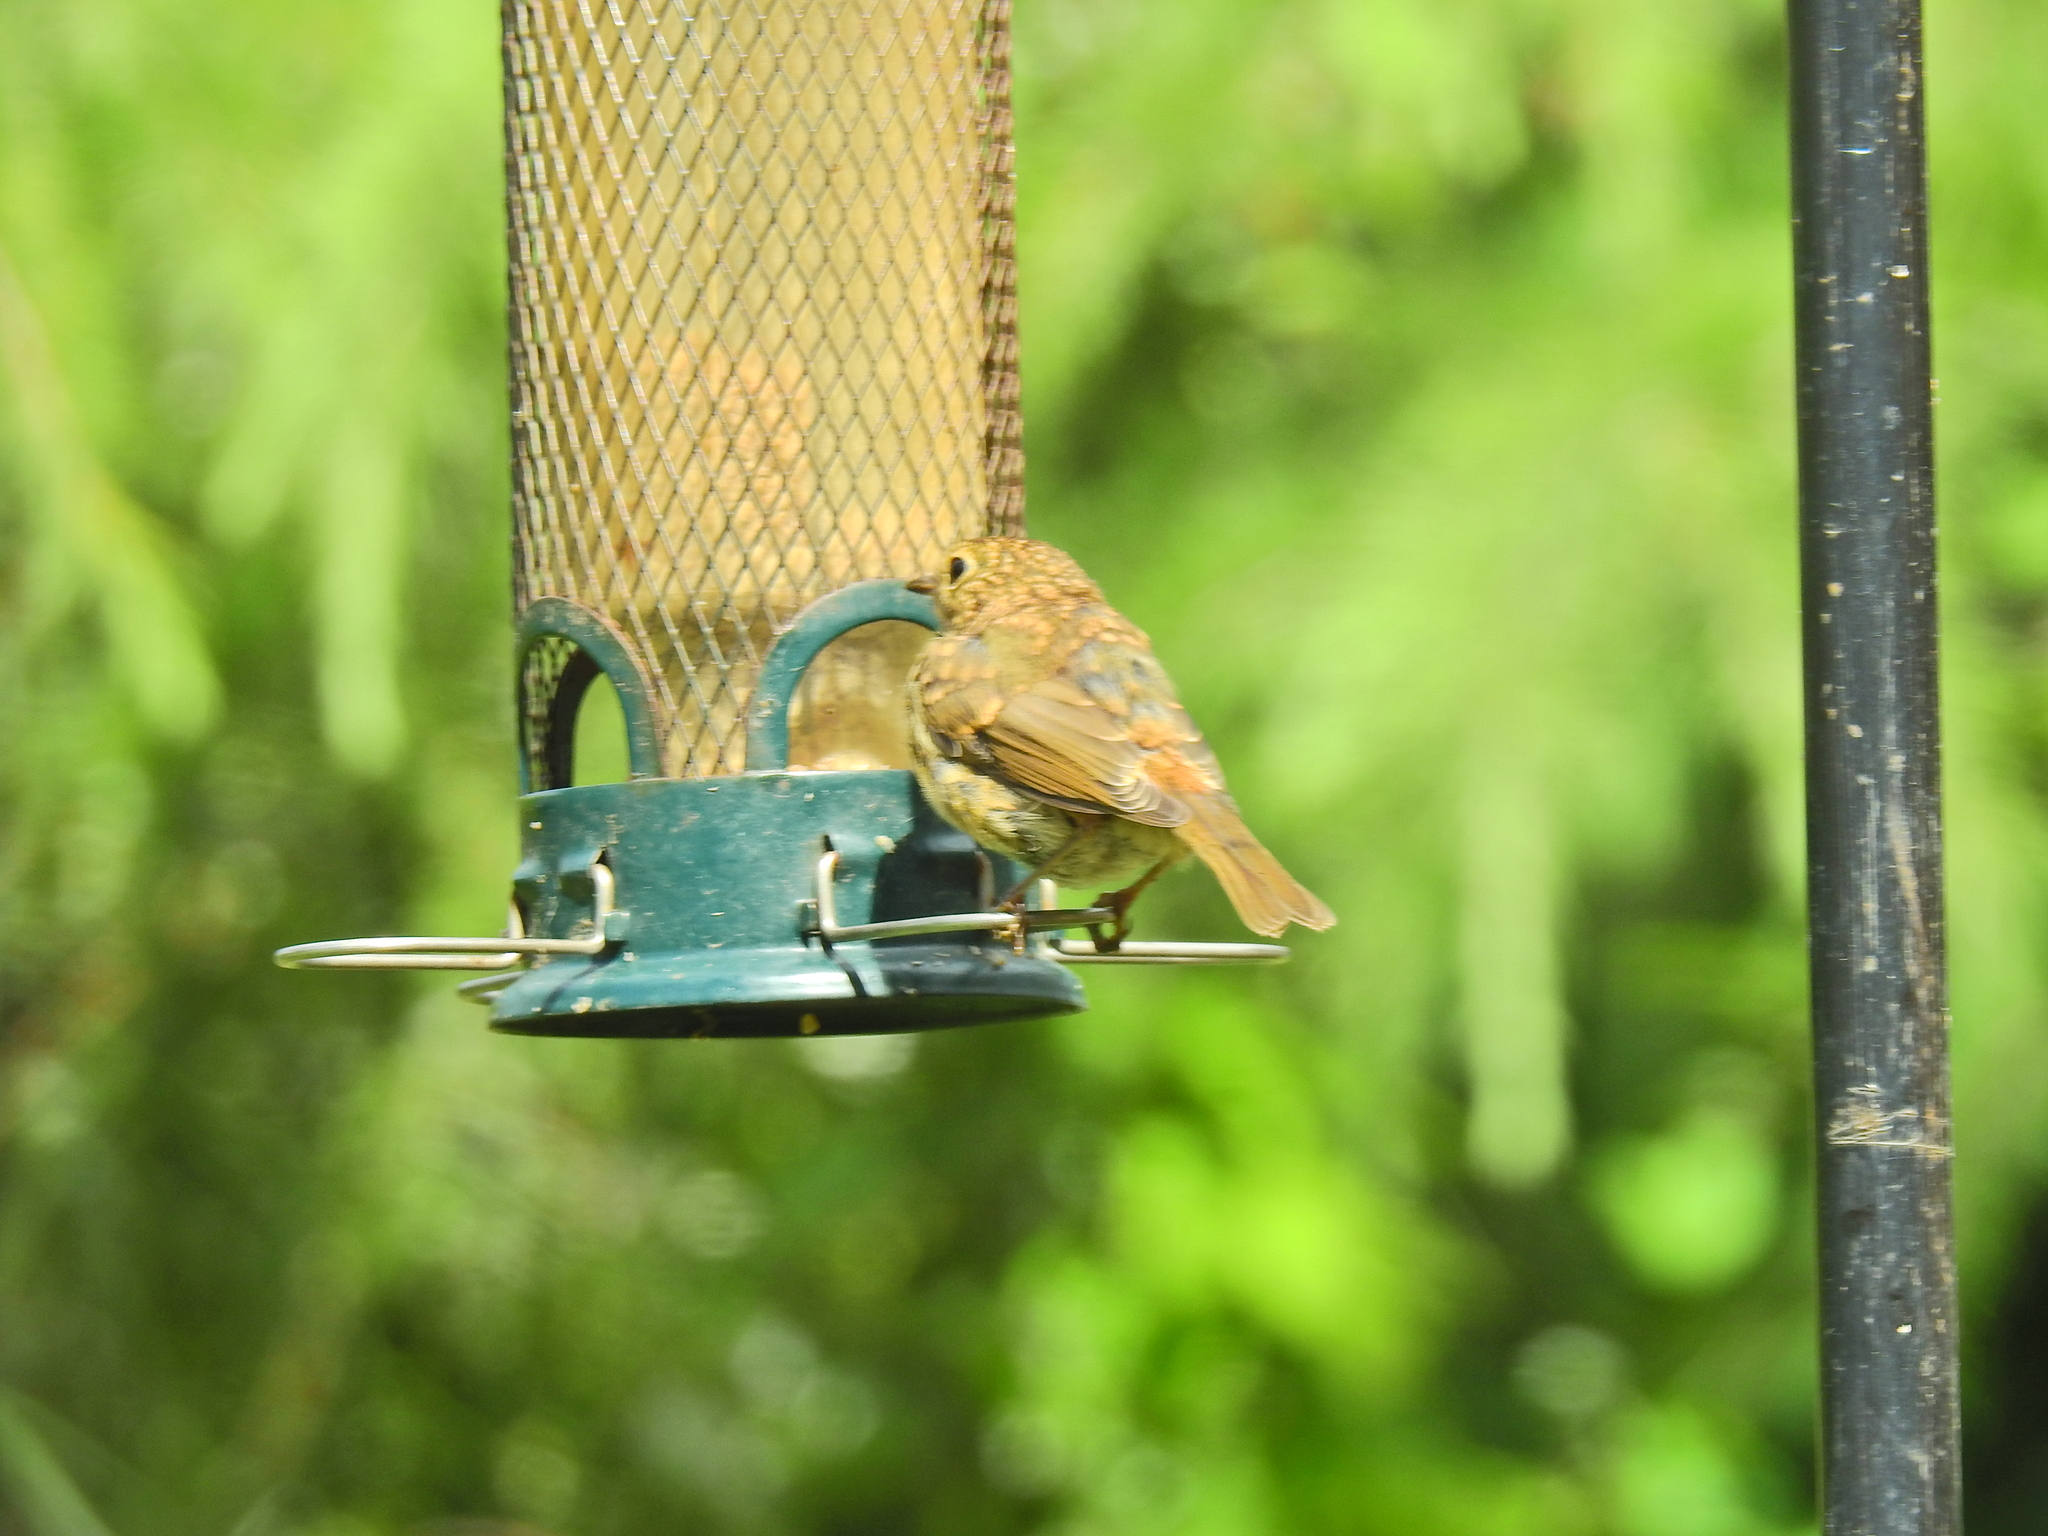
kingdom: Animalia
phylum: Chordata
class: Aves
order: Passeriformes
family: Muscicapidae
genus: Erithacus
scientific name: Erithacus rubecula
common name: European robin
